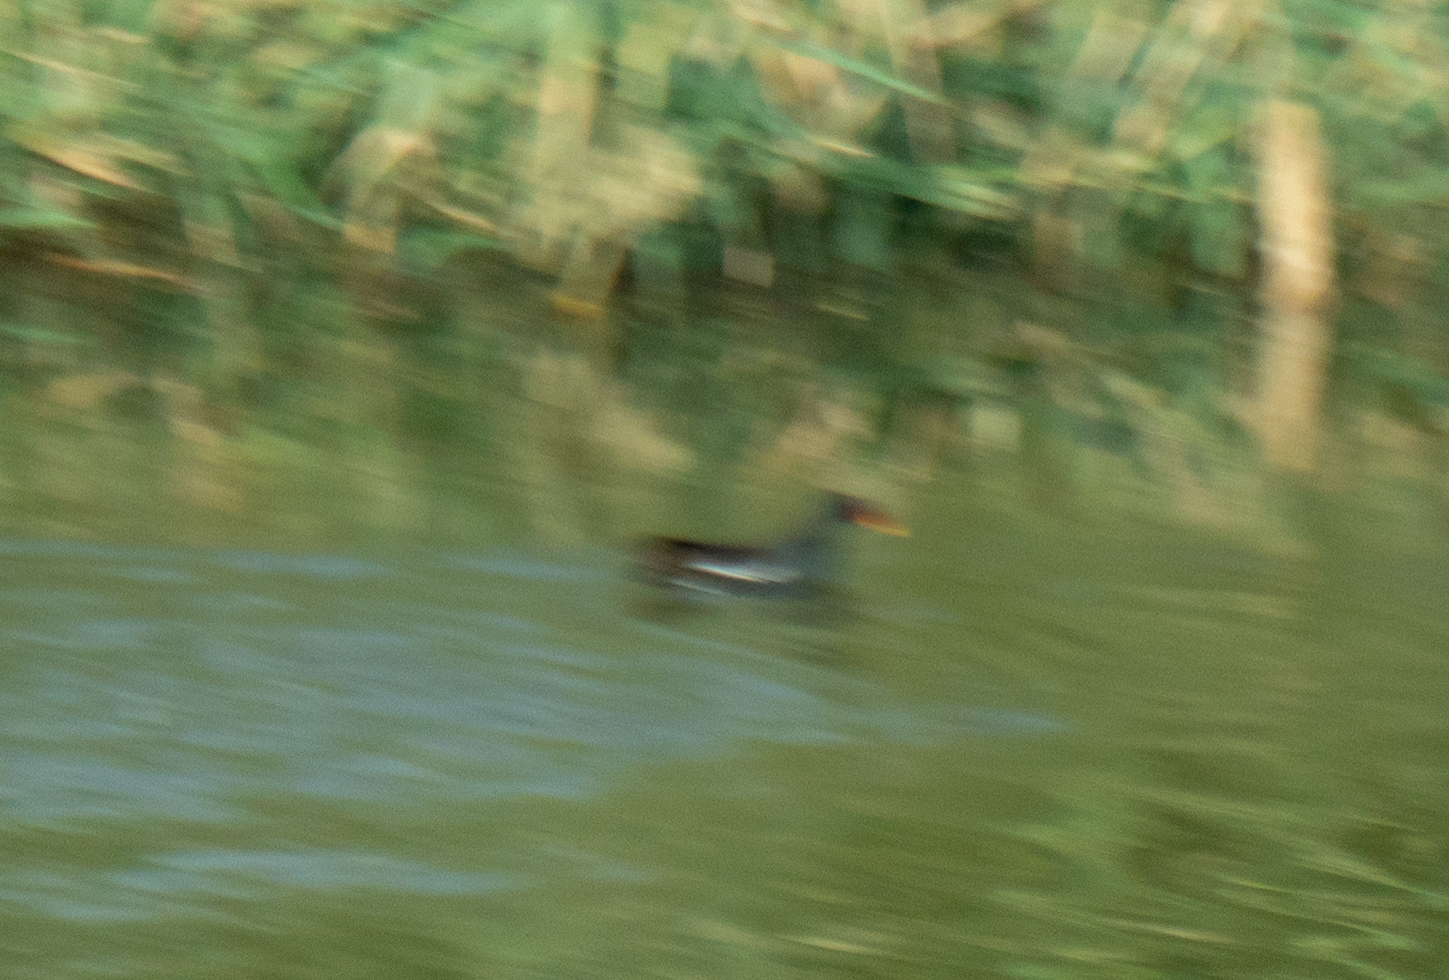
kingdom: Animalia
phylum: Chordata
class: Aves
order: Gruiformes
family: Rallidae
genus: Gallinula
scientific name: Gallinula chloropus
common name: Common moorhen
